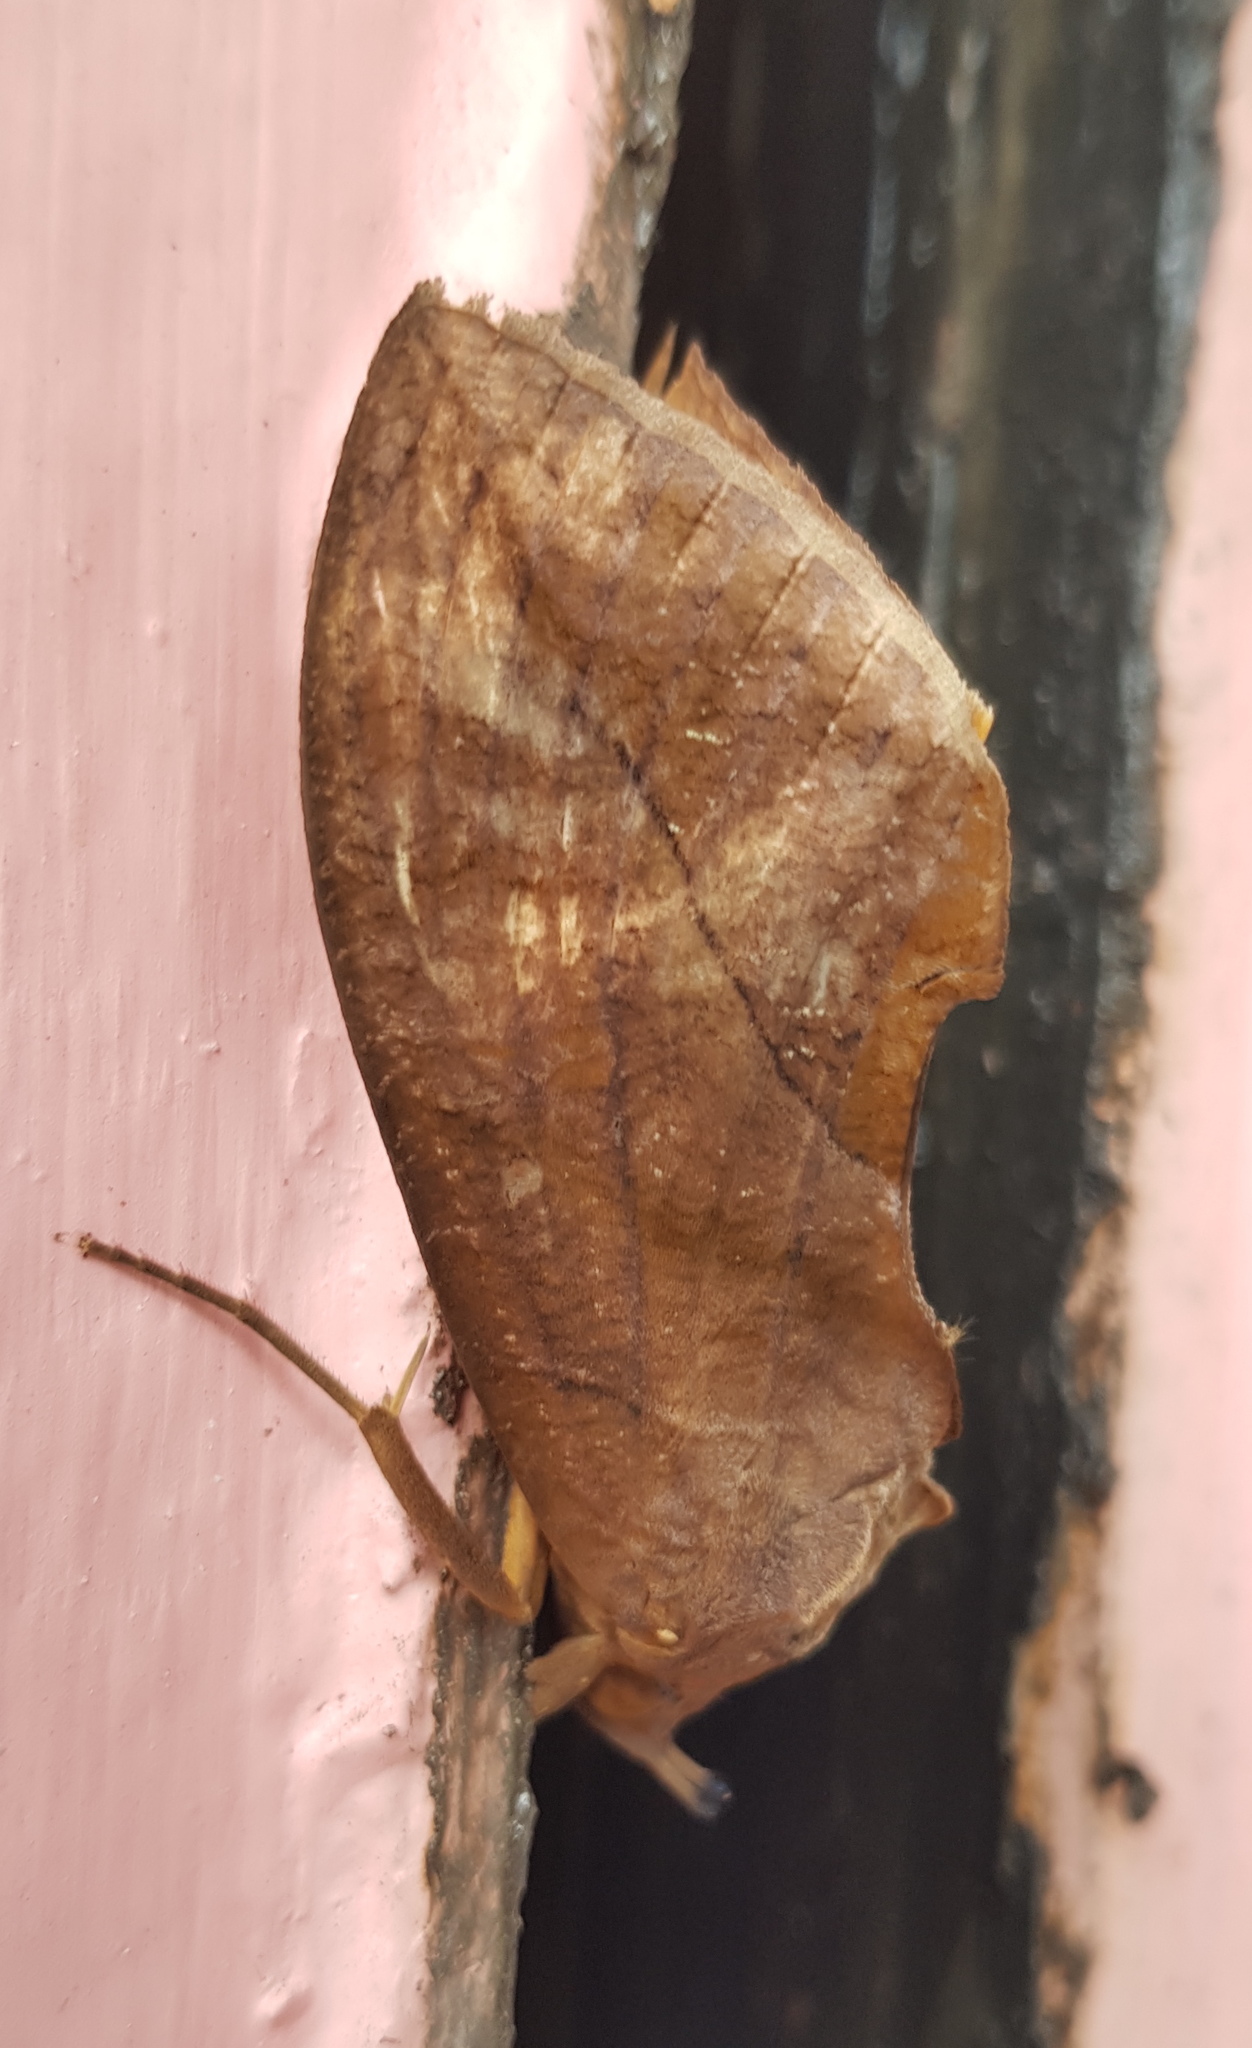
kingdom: Animalia
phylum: Arthropoda
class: Insecta
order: Lepidoptera
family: Erebidae
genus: Eudocima
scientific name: Eudocima serpentifera
